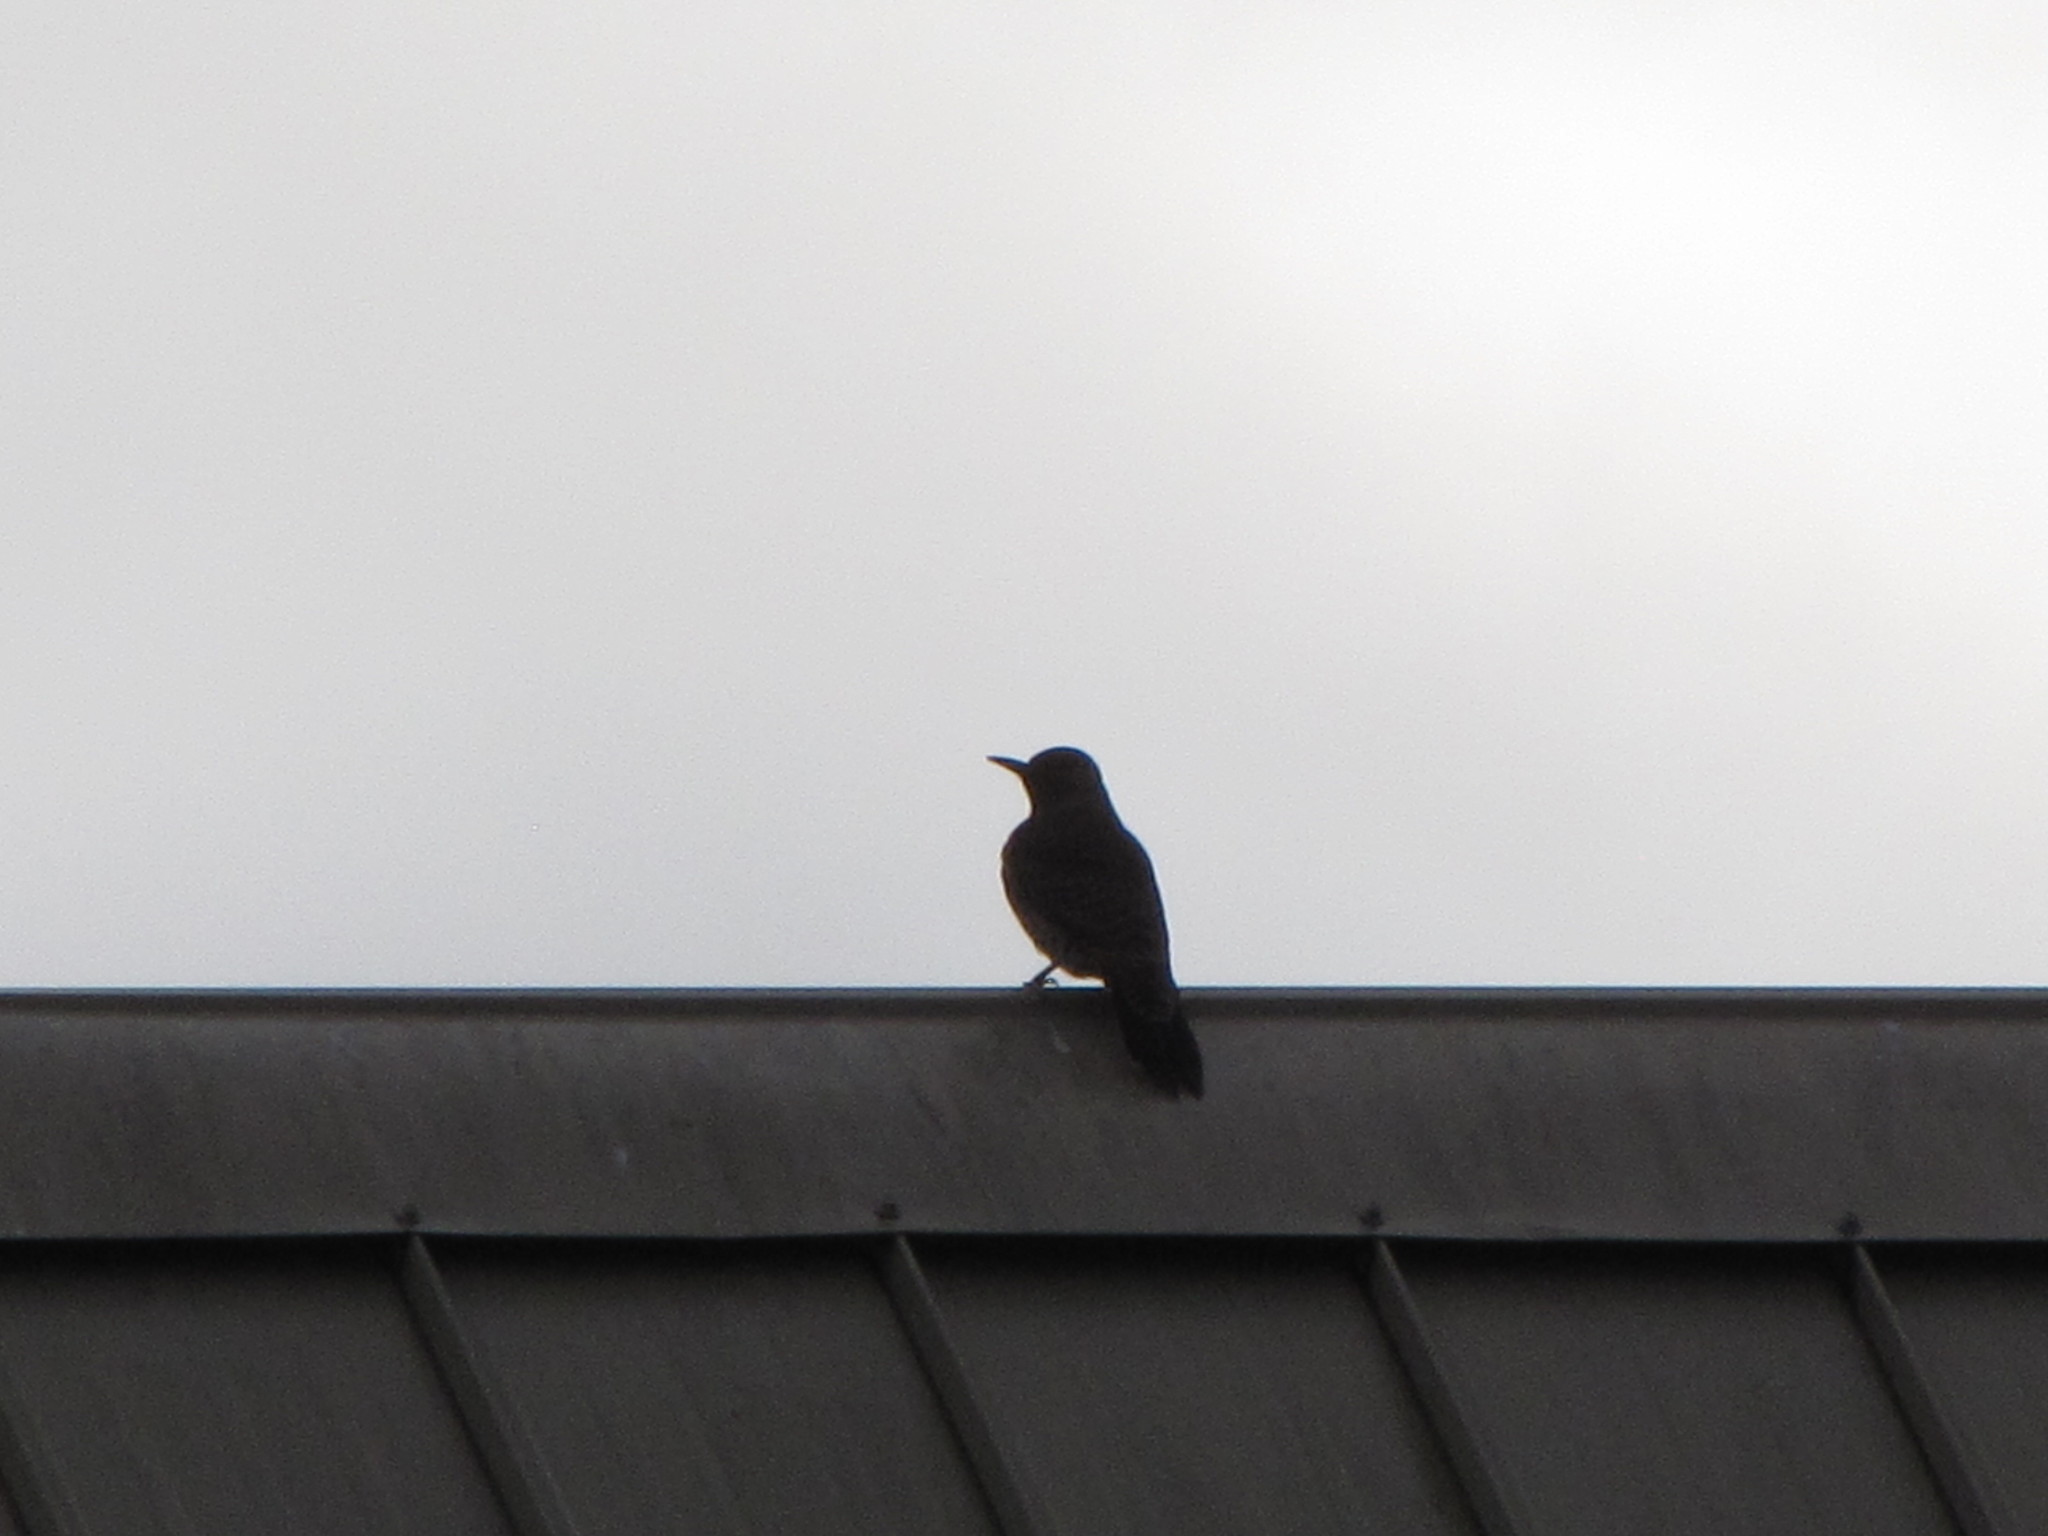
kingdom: Animalia
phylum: Chordata
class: Aves
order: Piciformes
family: Picidae
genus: Colaptes
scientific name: Colaptes auratus
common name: Northern flicker
